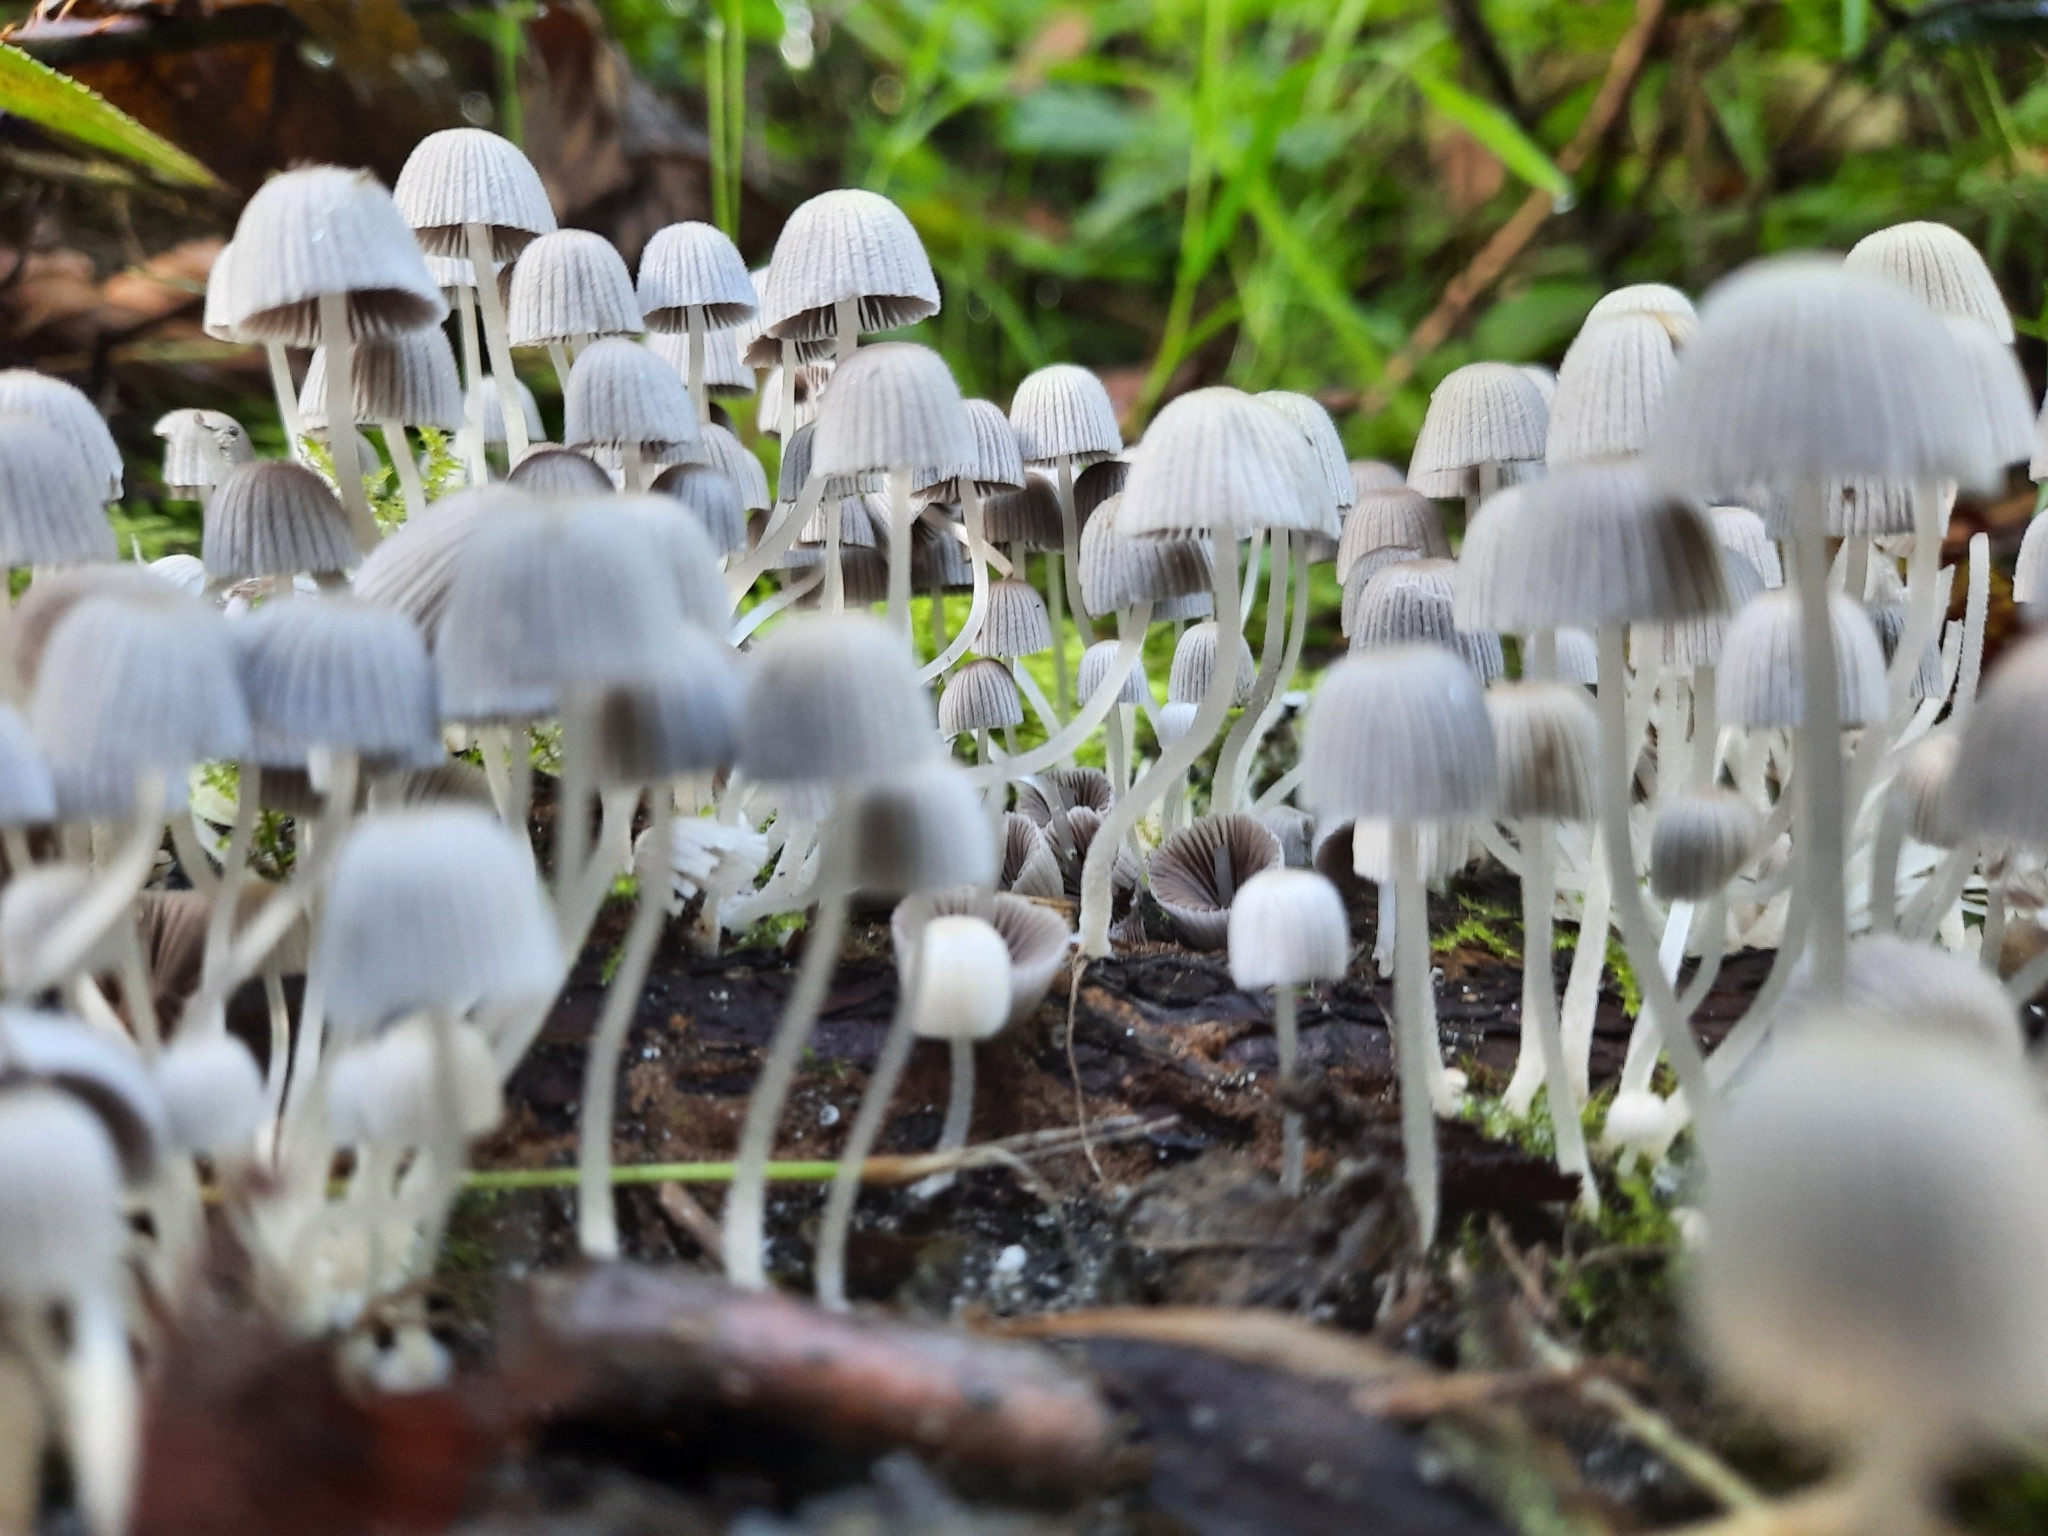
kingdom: Fungi
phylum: Basidiomycota
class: Agaricomycetes
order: Agaricales
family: Psathyrellaceae
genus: Coprinellus
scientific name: Coprinellus disseminatus
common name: Fairies' bonnets
